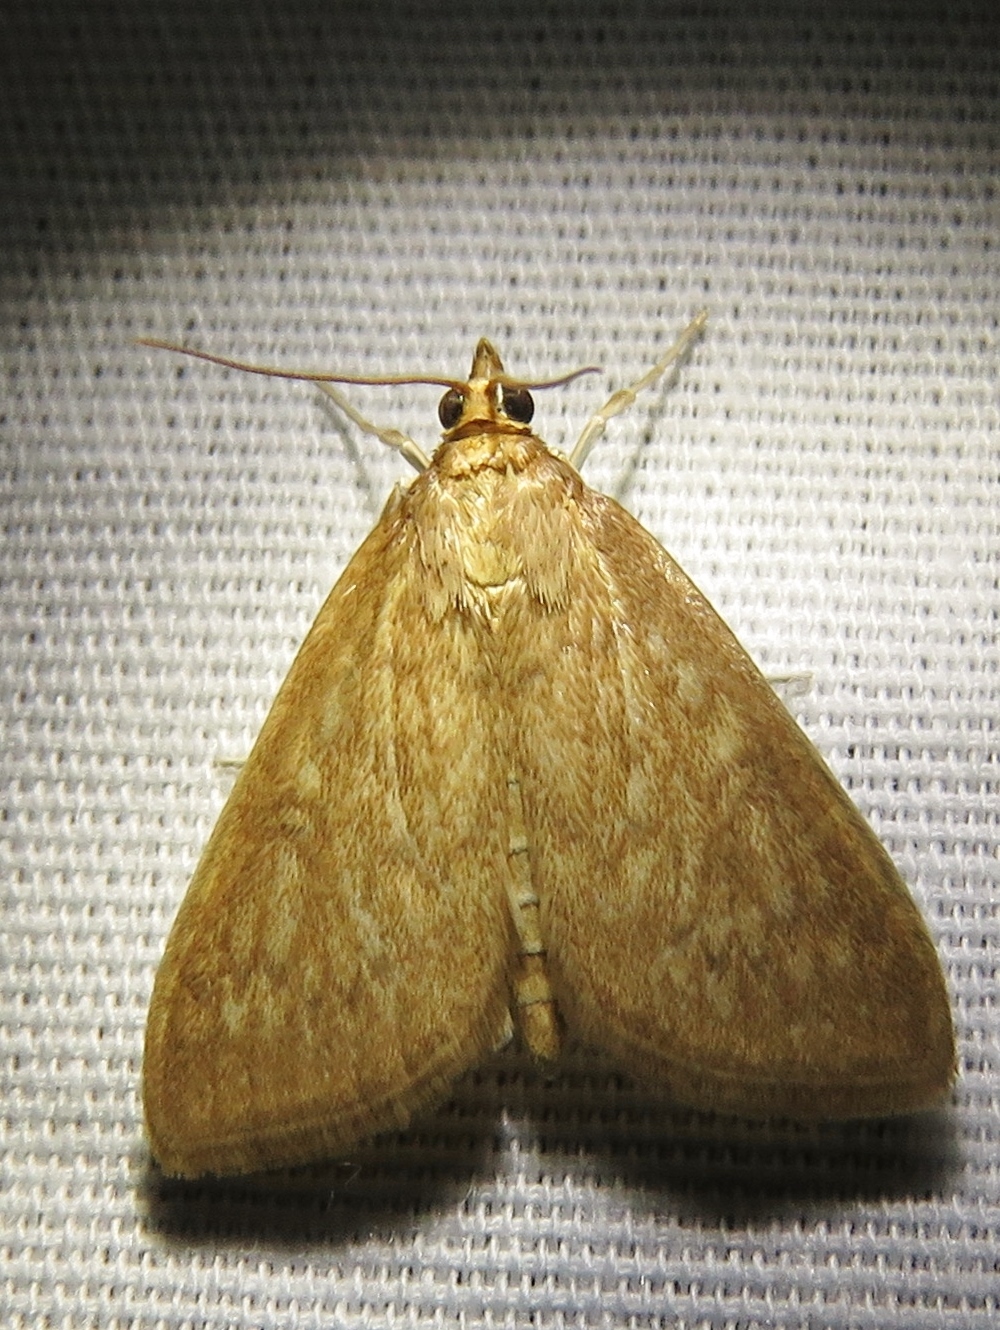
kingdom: Animalia
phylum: Arthropoda
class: Insecta
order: Lepidoptera
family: Crambidae
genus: Anania
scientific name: Anania Framinghamia helvalis
